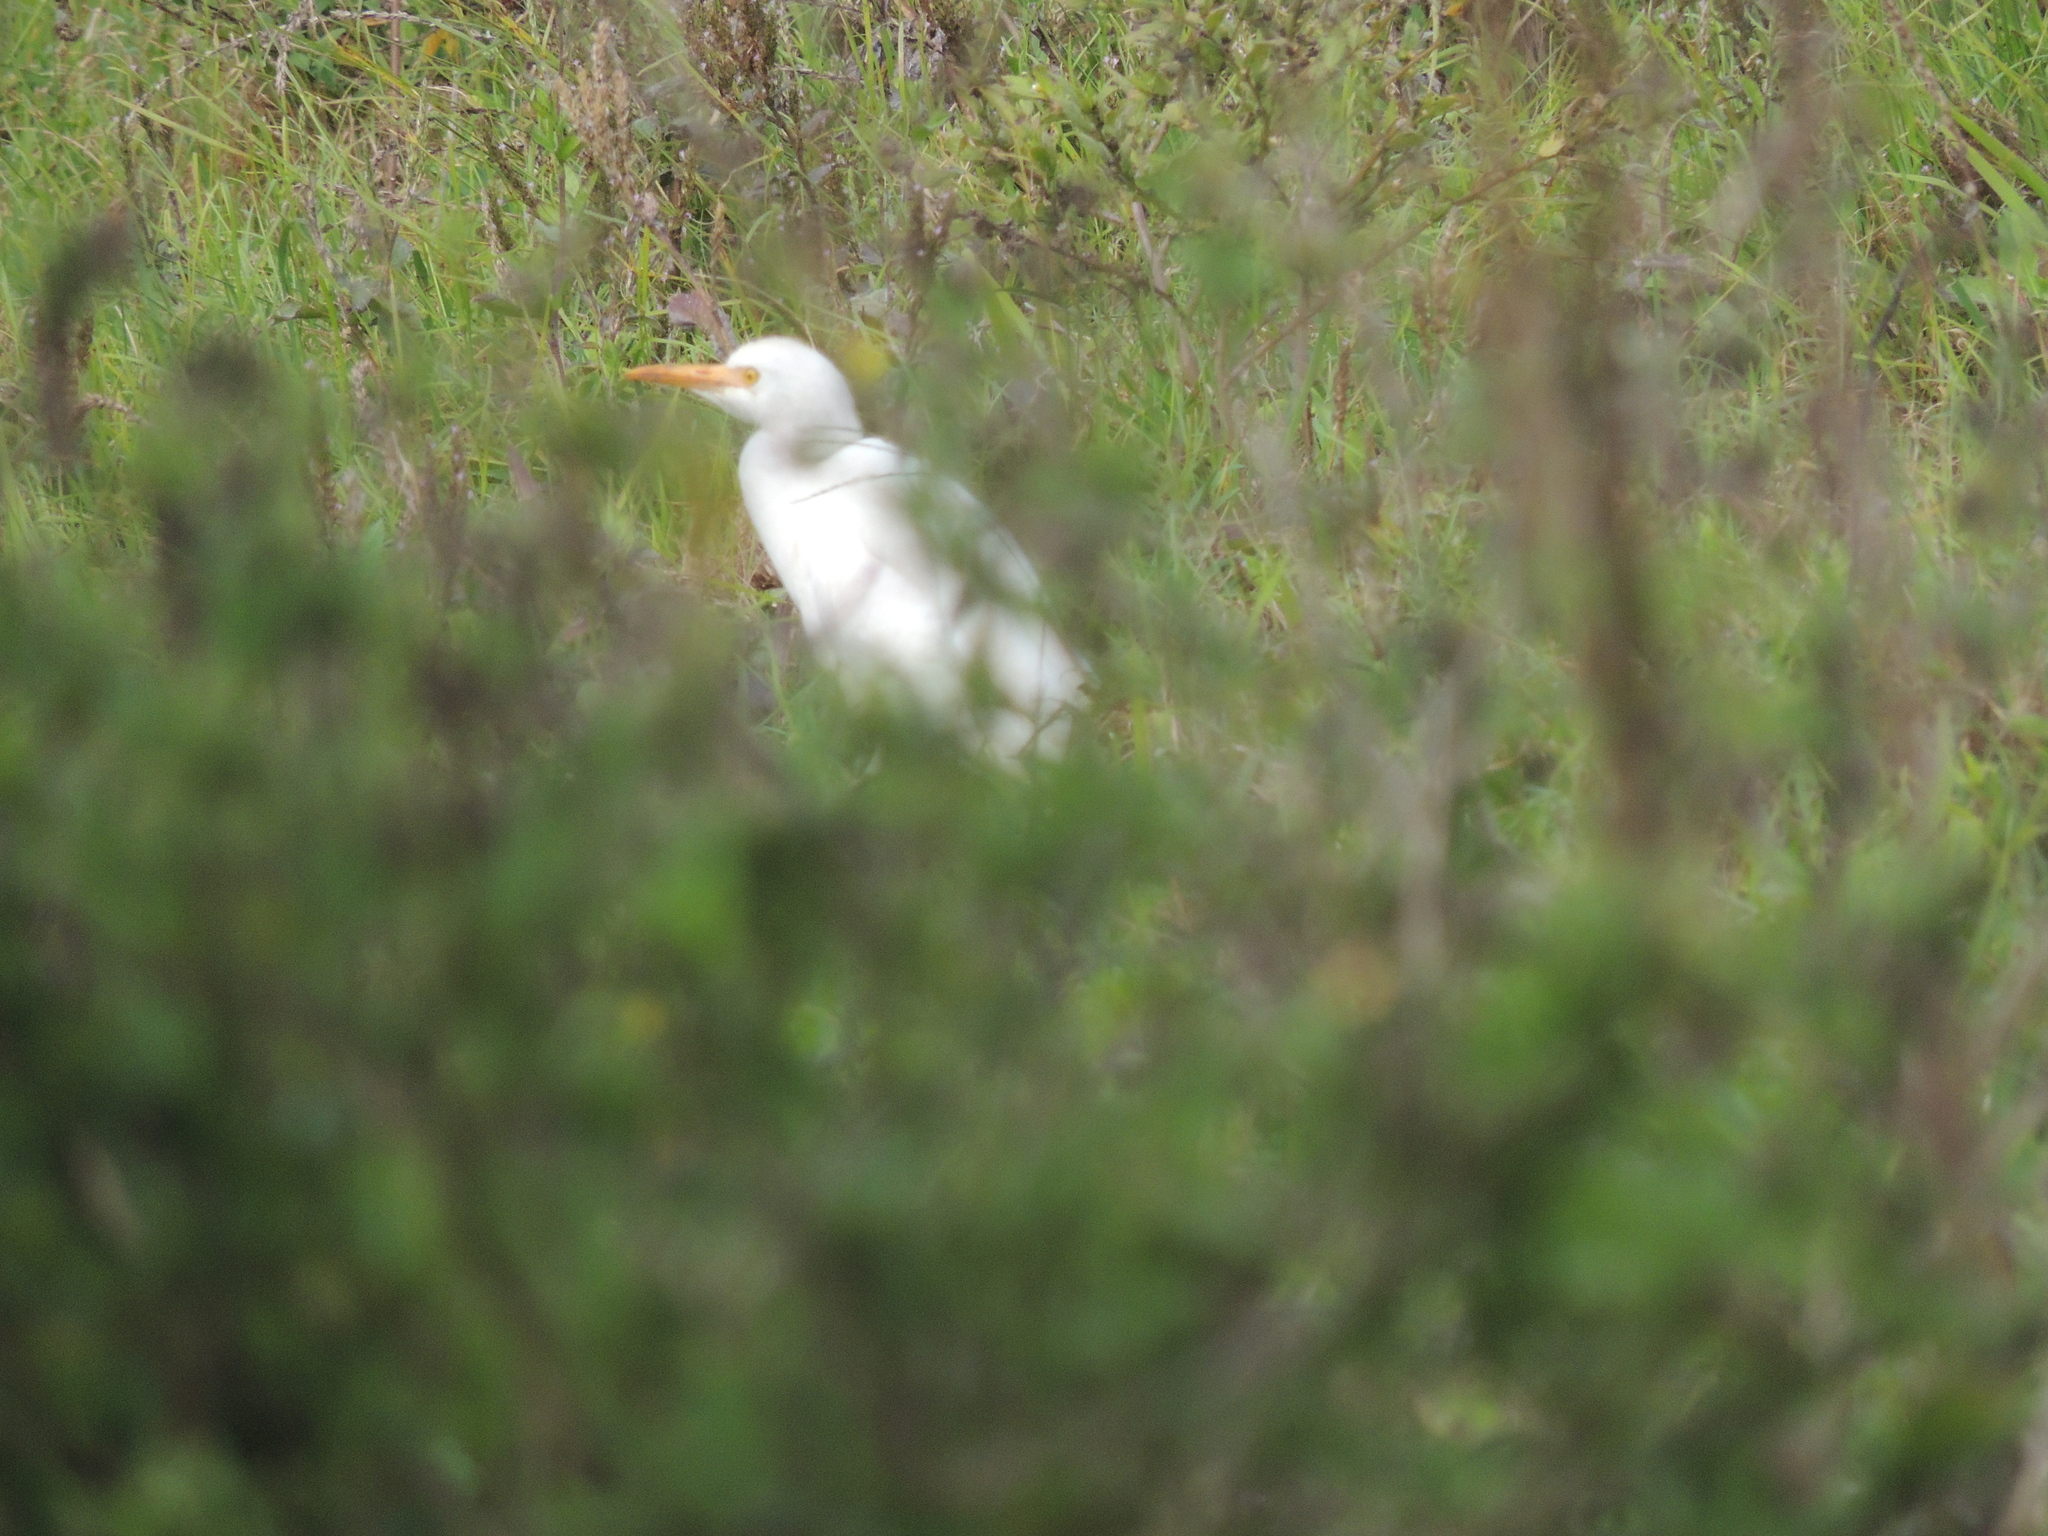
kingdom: Animalia
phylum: Chordata
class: Aves
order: Pelecaniformes
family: Ardeidae
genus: Bubulcus
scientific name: Bubulcus ibis
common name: Cattle egret
